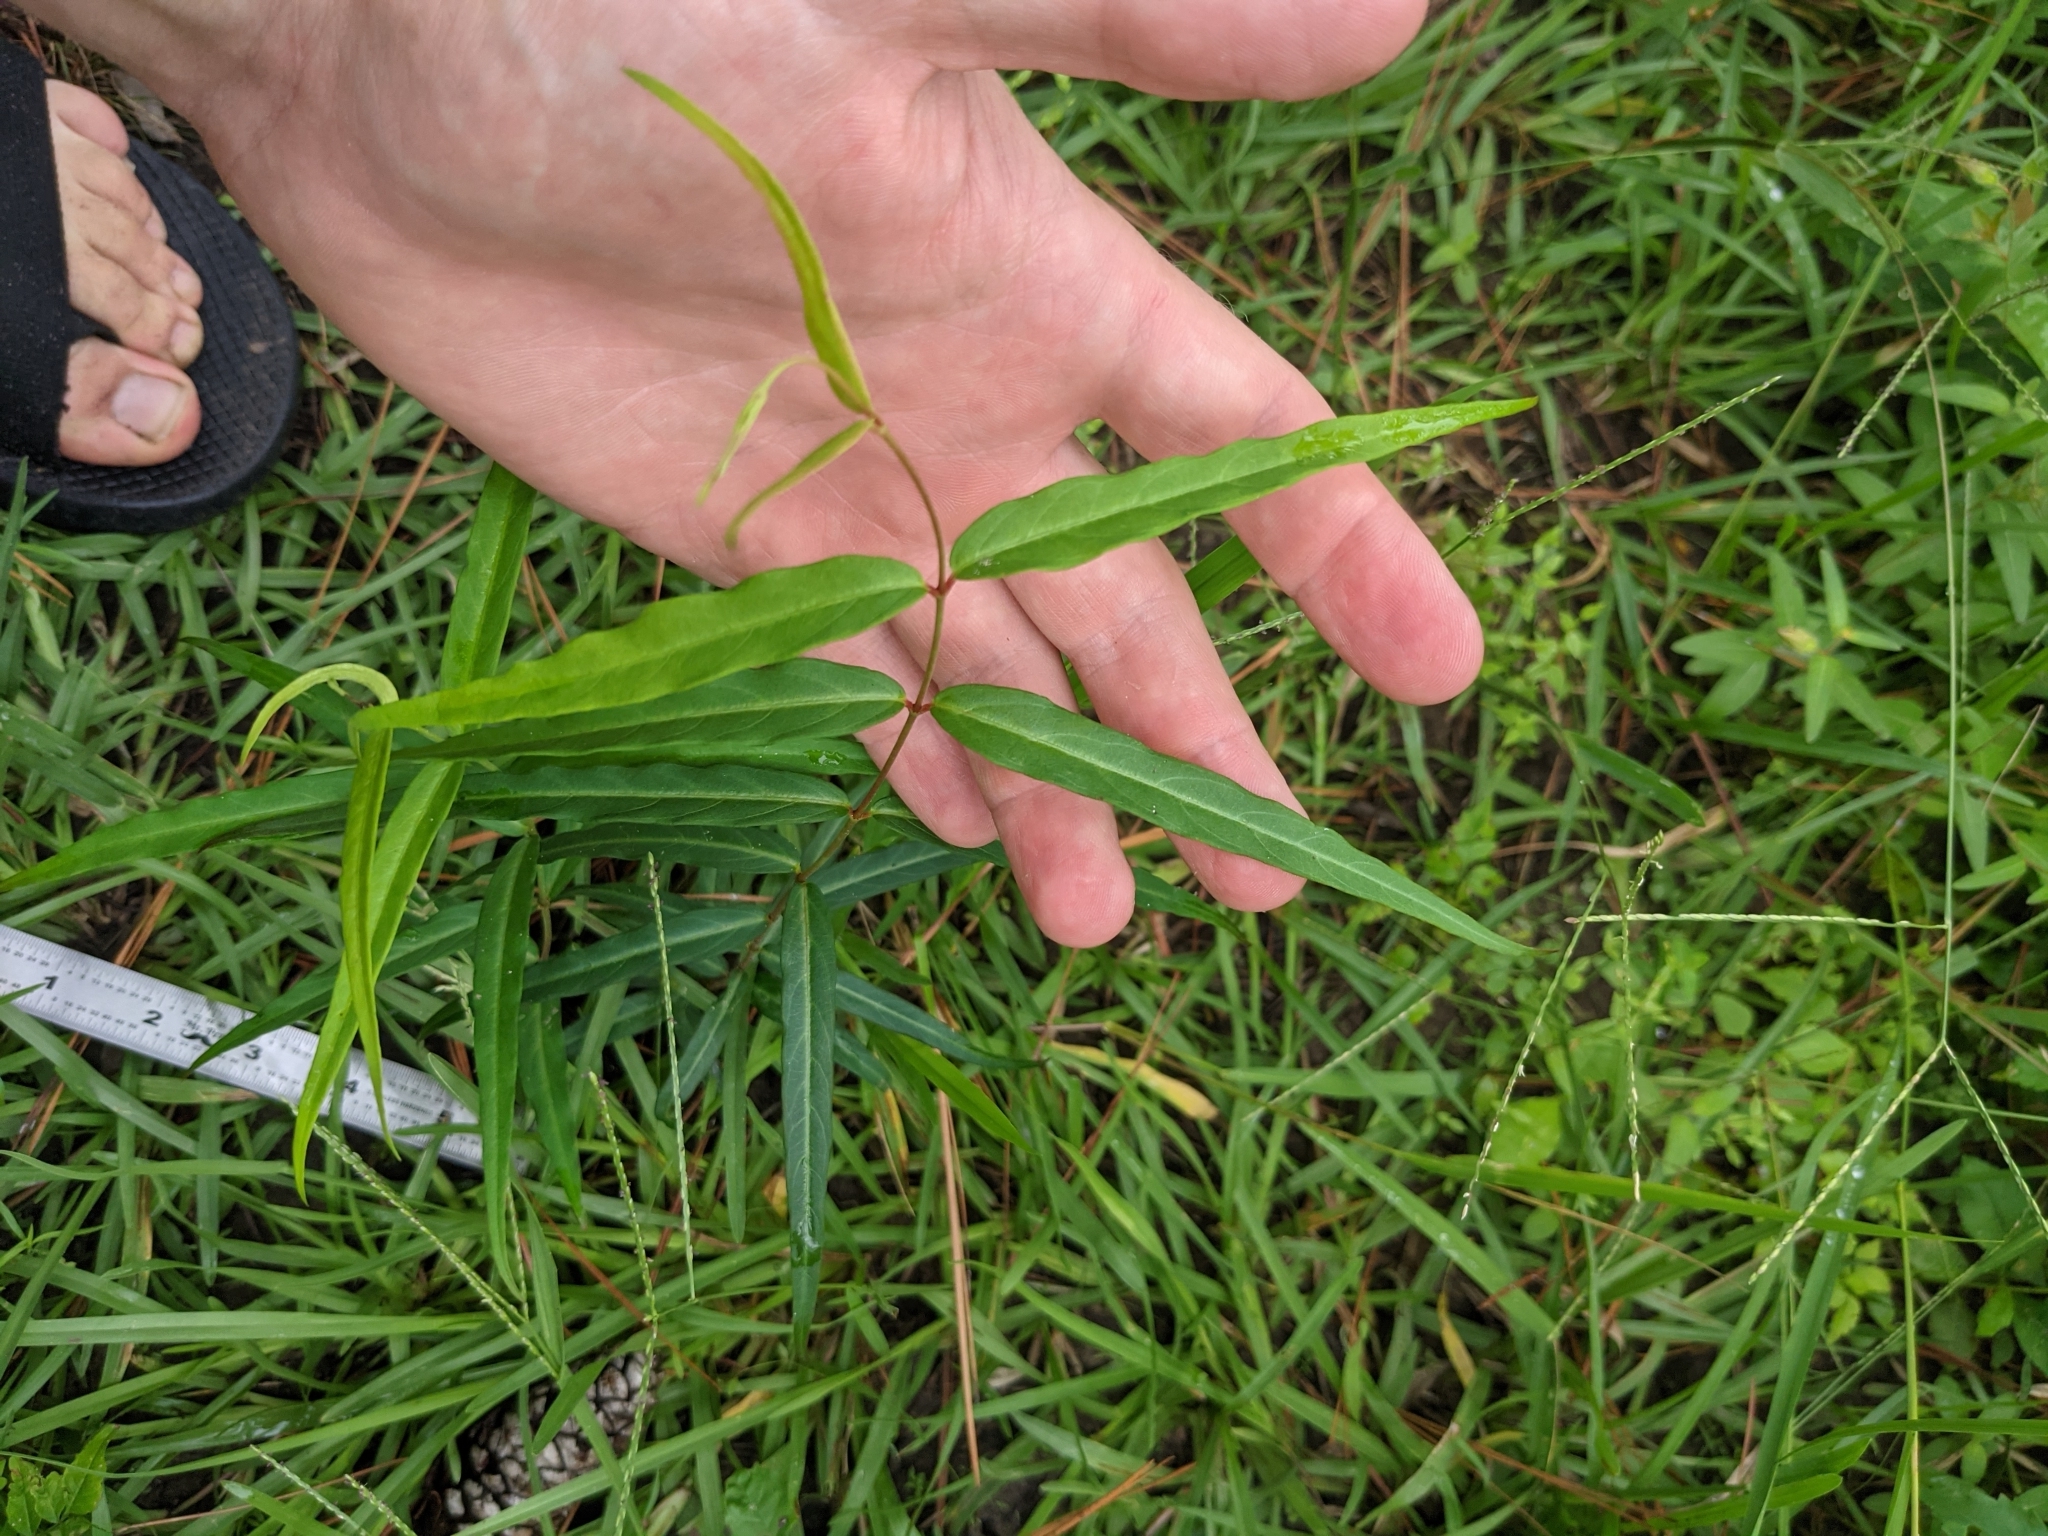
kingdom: Plantae
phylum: Tracheophyta
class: Magnoliopsida
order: Gentianales
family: Apocynaceae
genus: Thyrsanthella
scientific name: Thyrsanthella difformis
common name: Climbing dogbane
